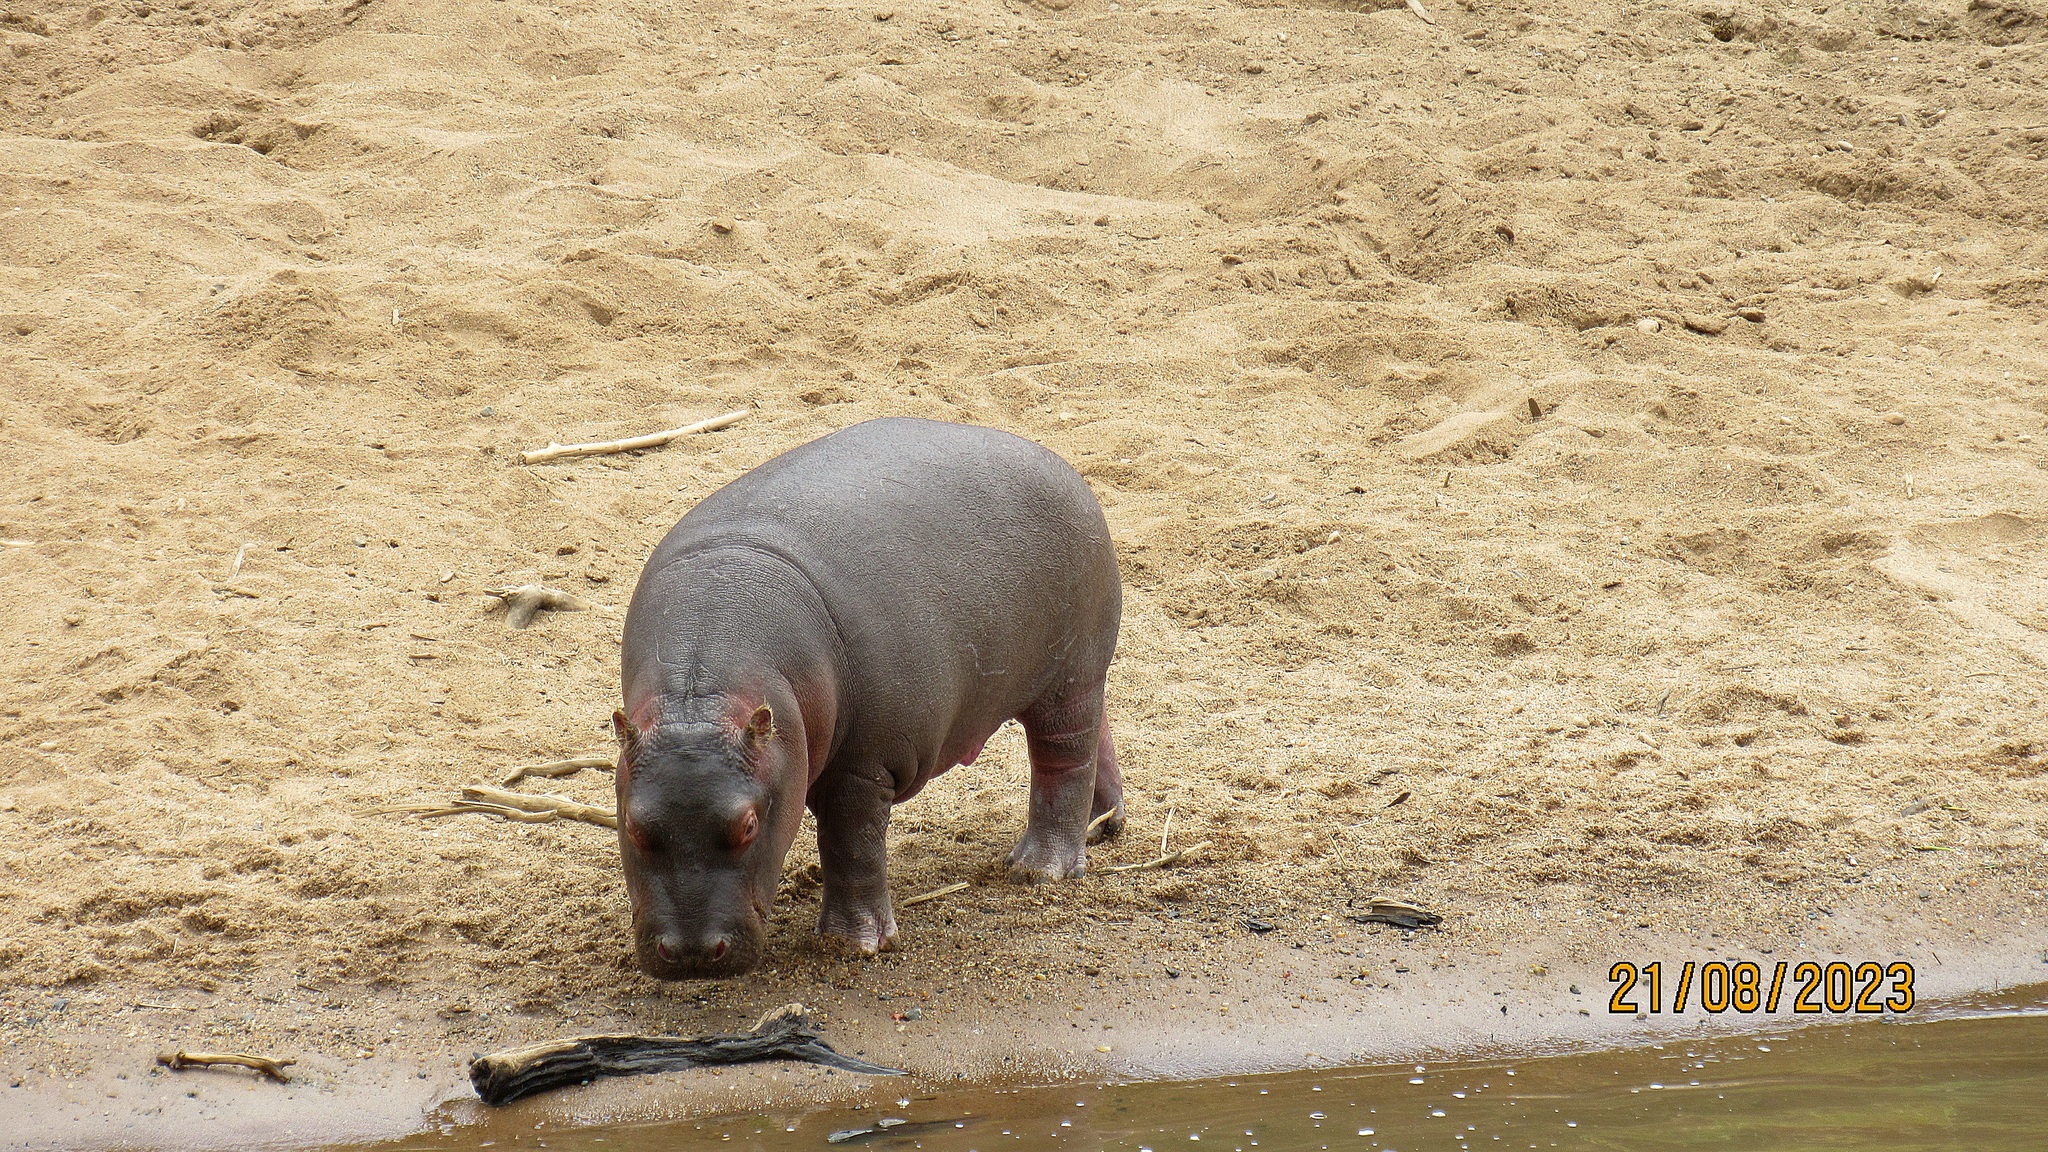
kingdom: Animalia
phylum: Chordata
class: Mammalia
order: Artiodactyla
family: Hippopotamidae
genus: Hippopotamus
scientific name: Hippopotamus amphibius
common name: Common hippopotamus
